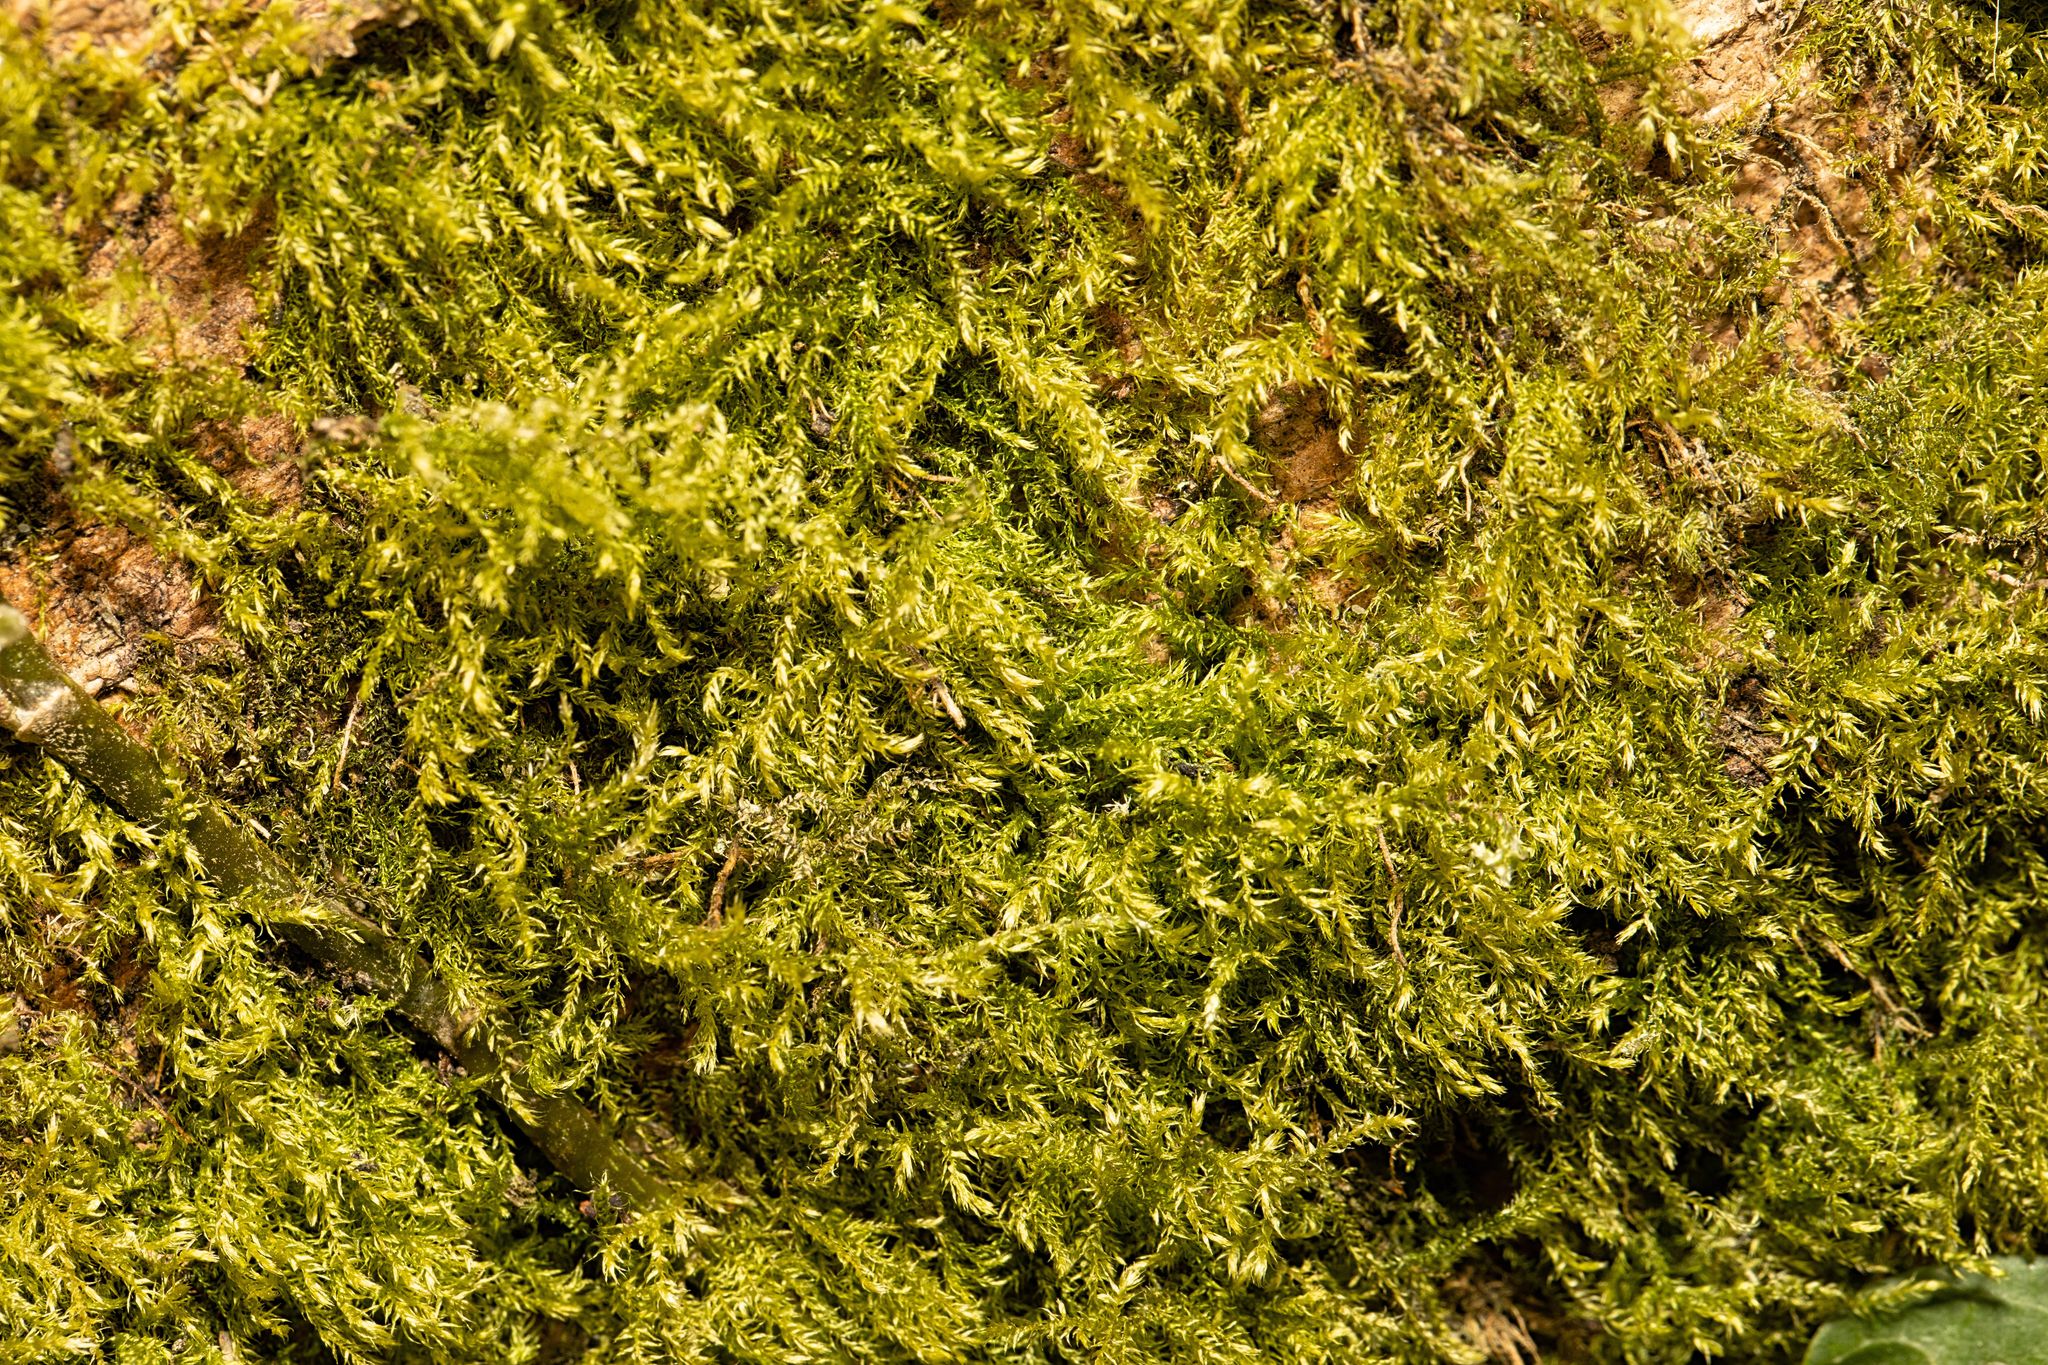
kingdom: Plantae
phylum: Bryophyta
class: Bryopsida
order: Hypnales
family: Brachytheciaceae
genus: Kindbergia
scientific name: Kindbergia praelonga
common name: Slender beaked moss
